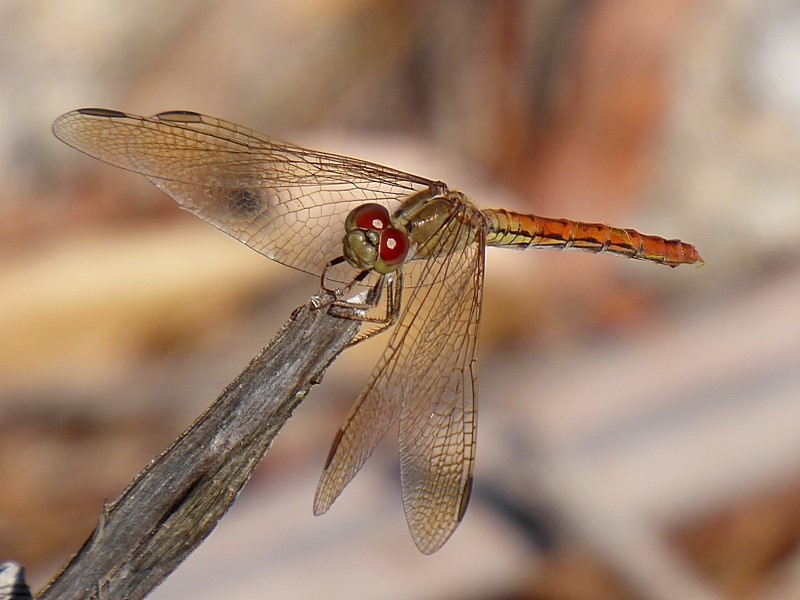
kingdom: Animalia
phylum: Arthropoda
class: Insecta
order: Odonata
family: Libellulidae
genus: Diplacodes
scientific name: Diplacodes haematodes
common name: Scarlet percher
